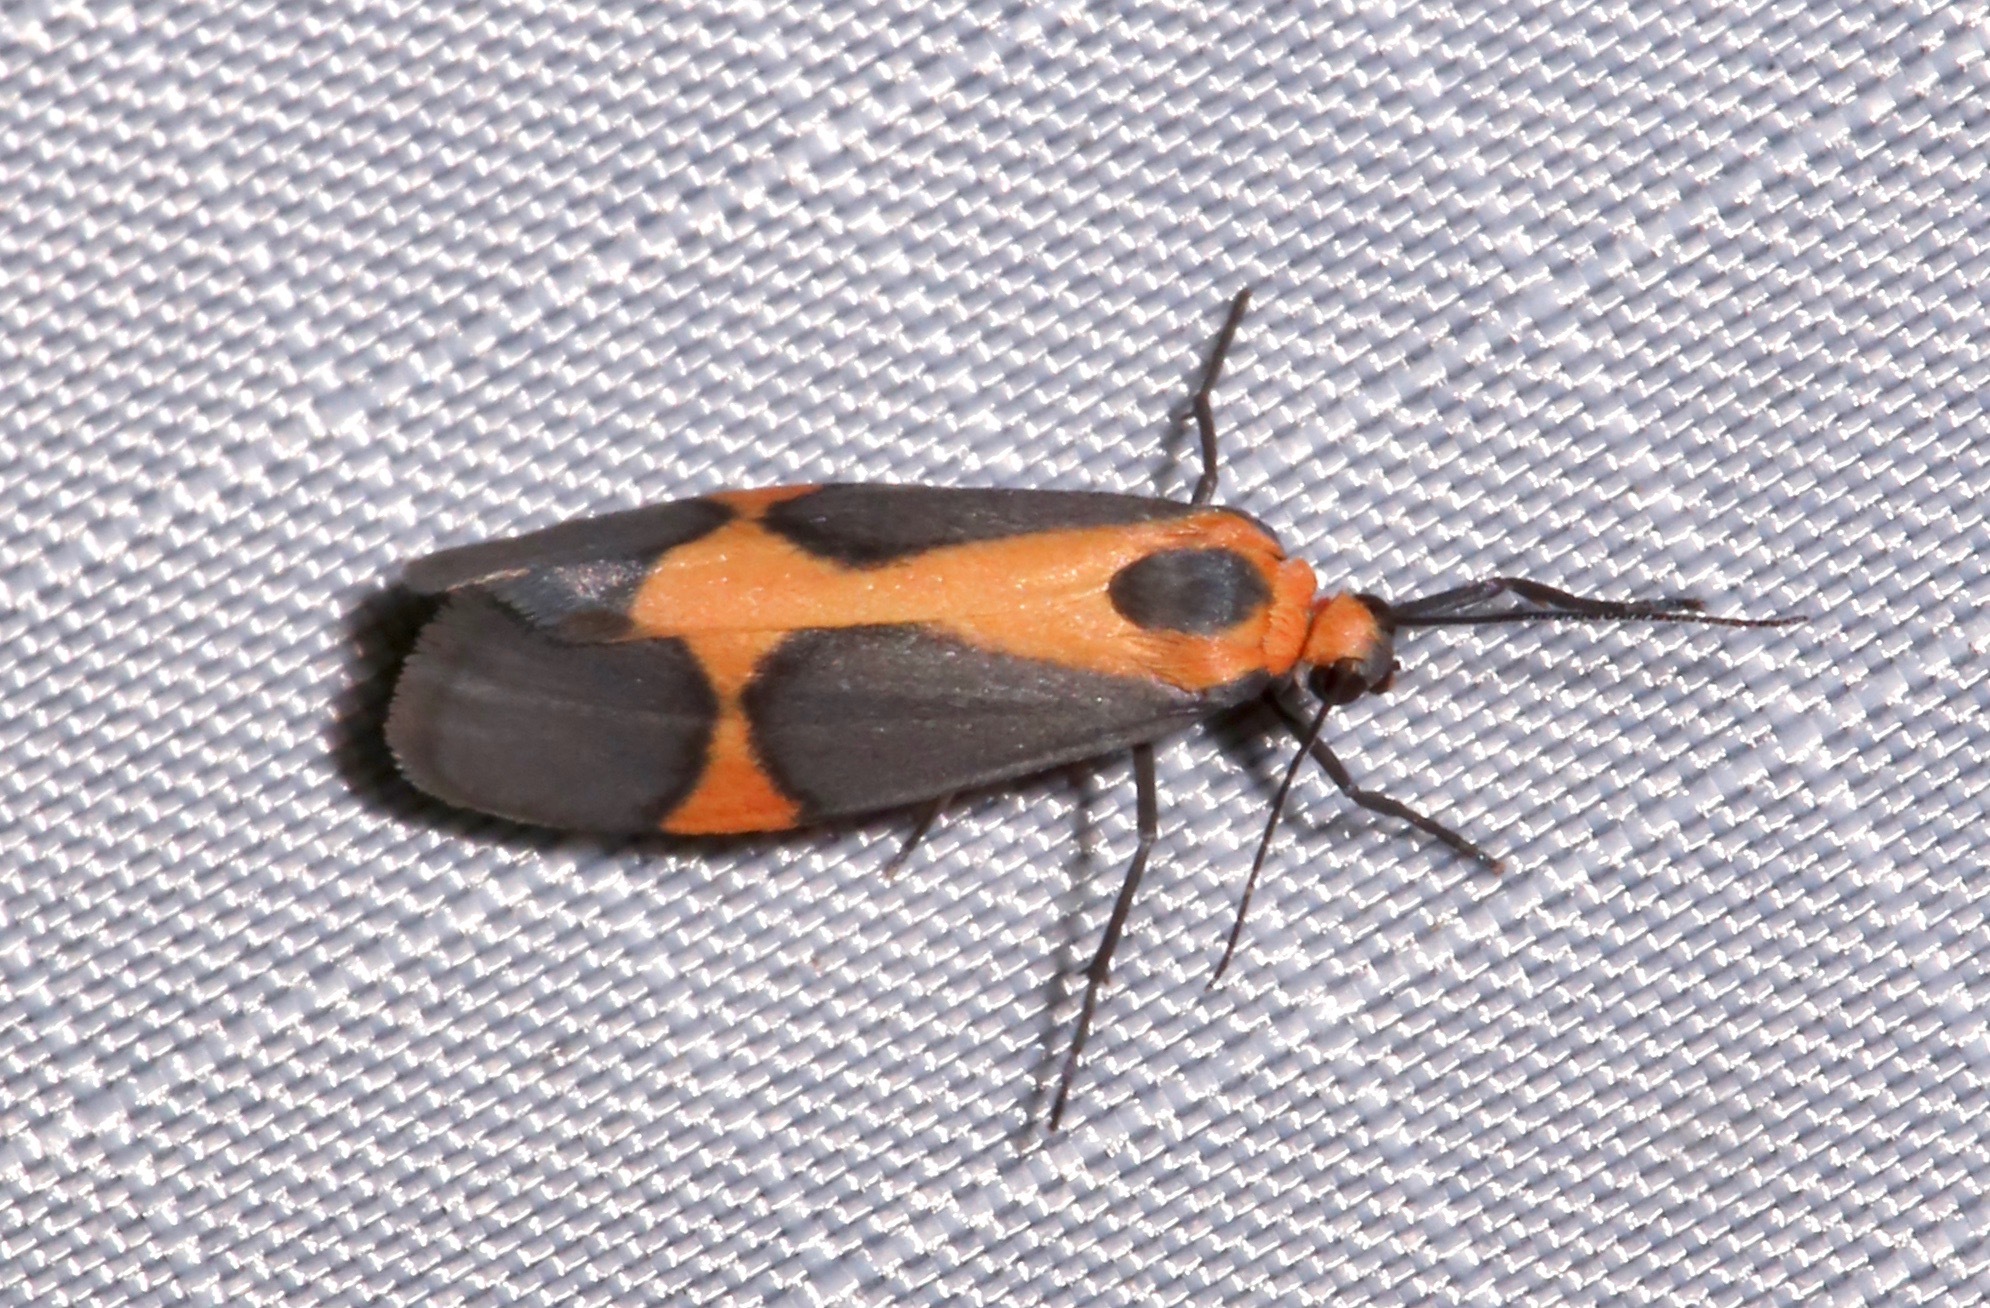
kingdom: Animalia
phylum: Arthropoda
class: Insecta
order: Lepidoptera
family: Erebidae
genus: Cisthene
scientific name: Cisthene martini
